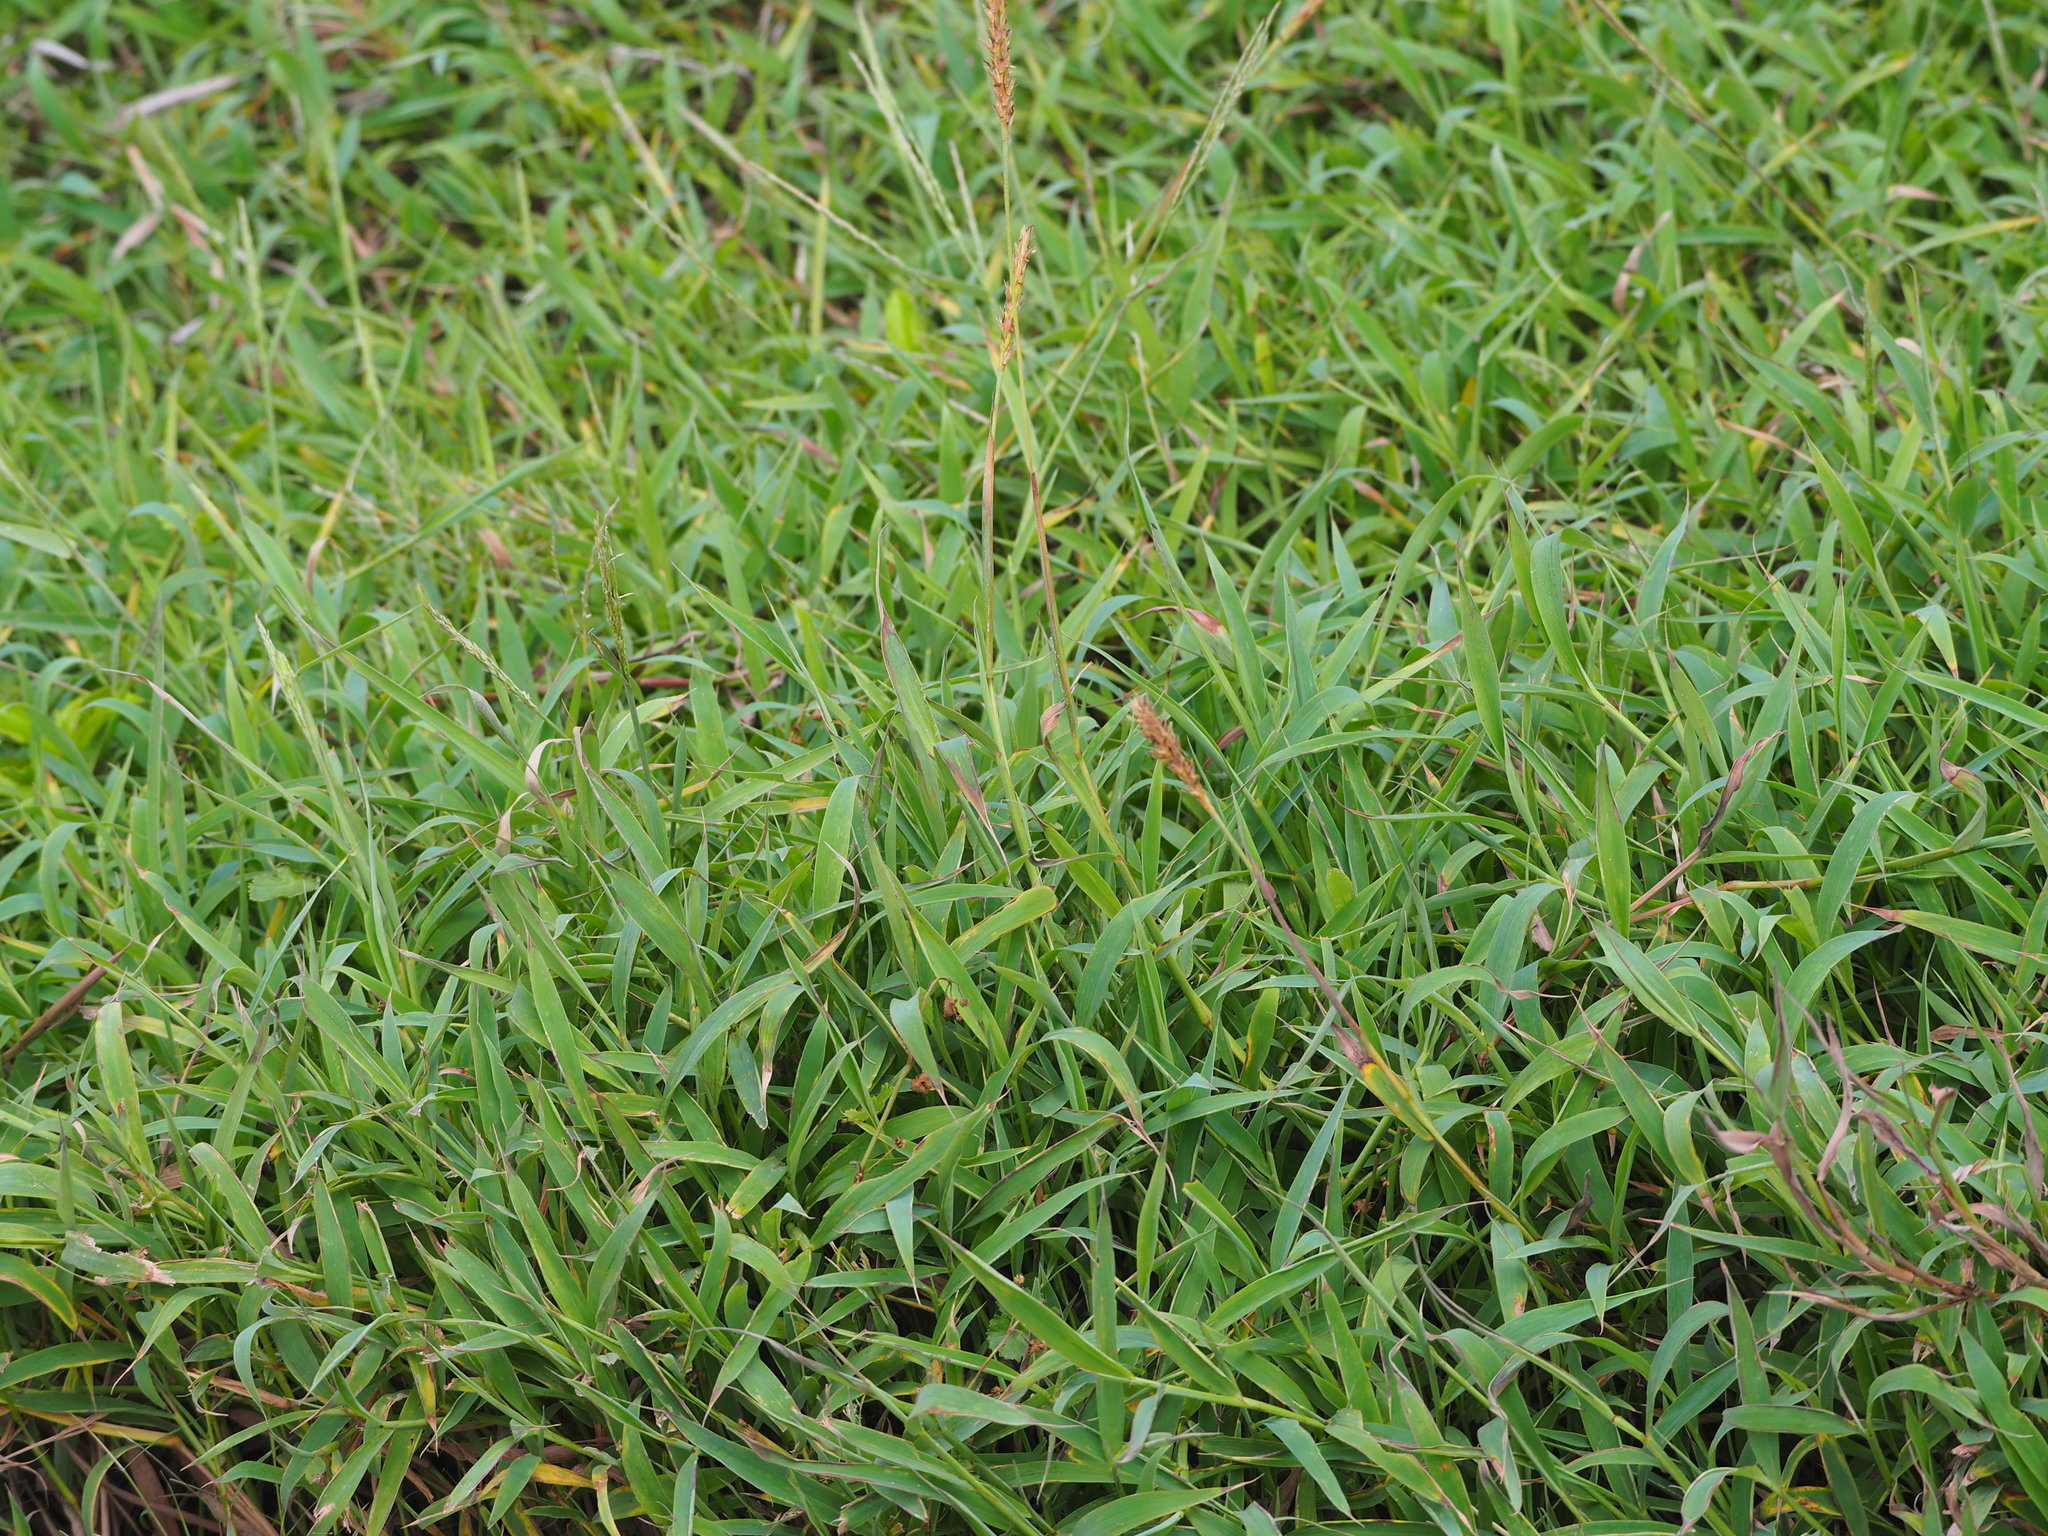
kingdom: Plantae
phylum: Tracheophyta
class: Liliopsida
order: Poales
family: Poaceae
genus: Ischaemum
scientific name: Ischaemum ciliare
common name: Grass
